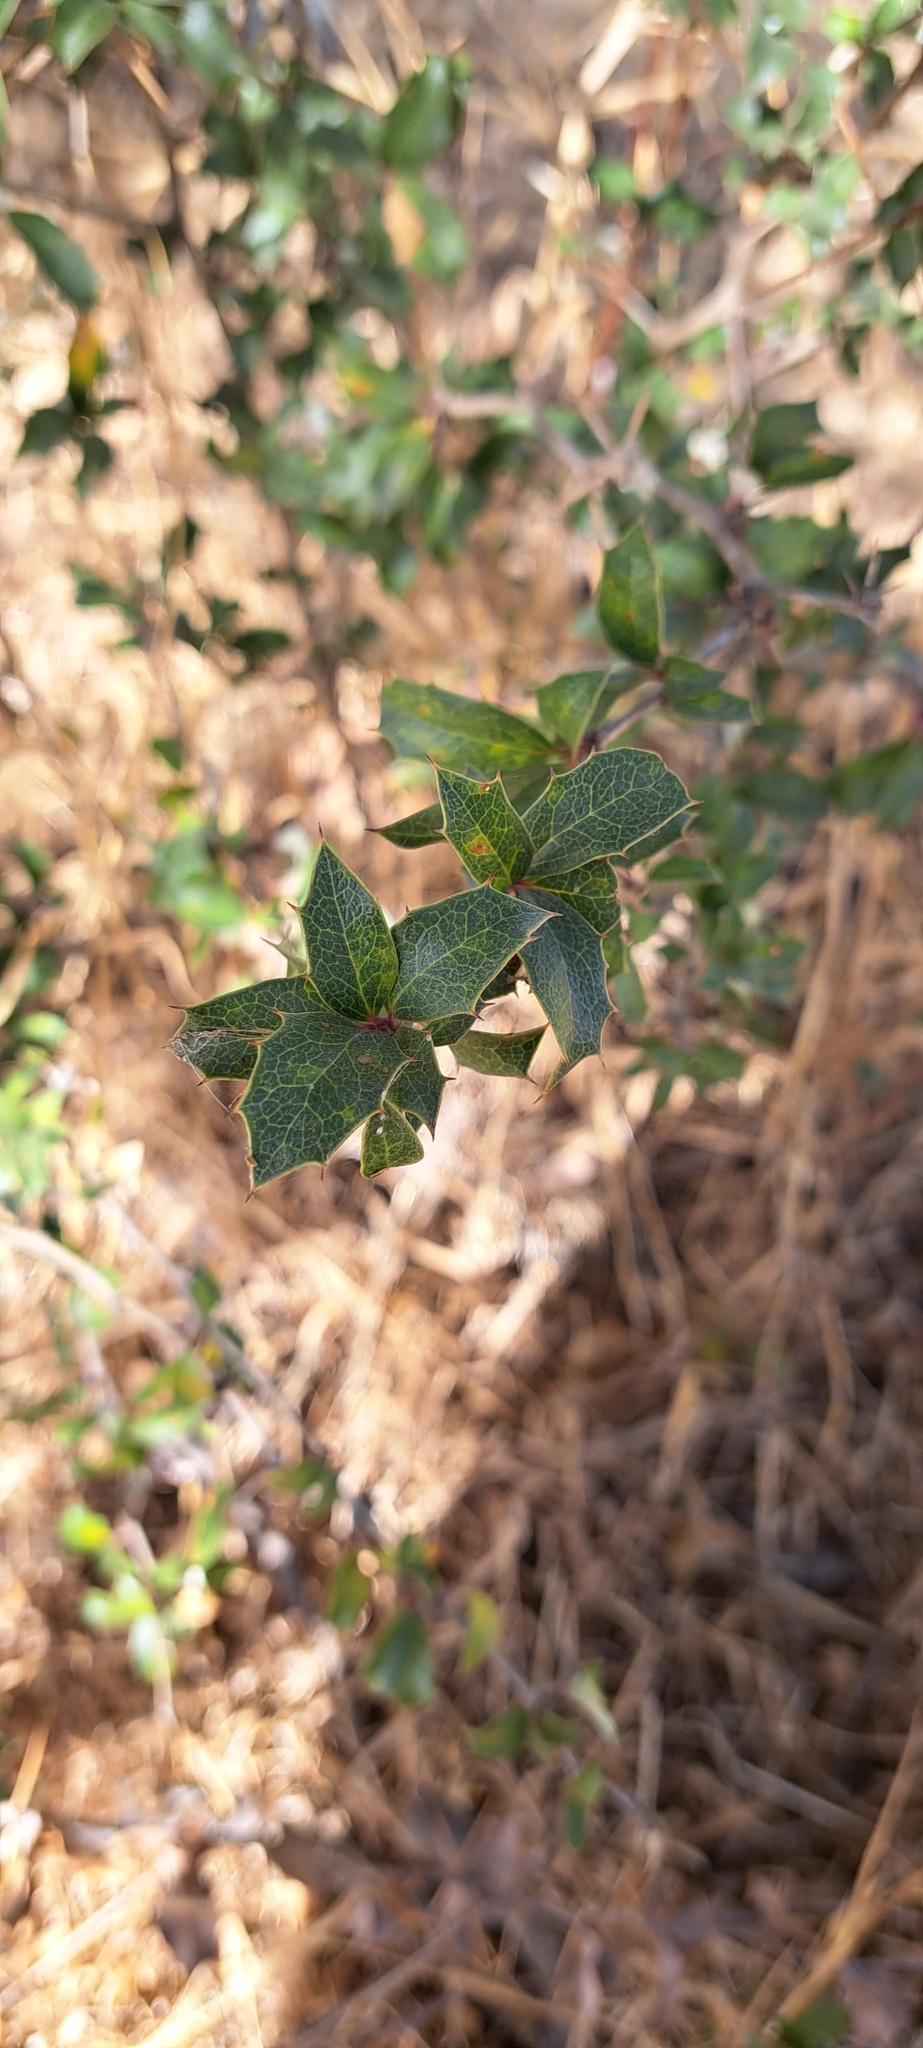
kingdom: Plantae
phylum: Tracheophyta
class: Magnoliopsida
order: Ranunculales
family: Berberidaceae
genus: Berberis
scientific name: Berberis chilensis
